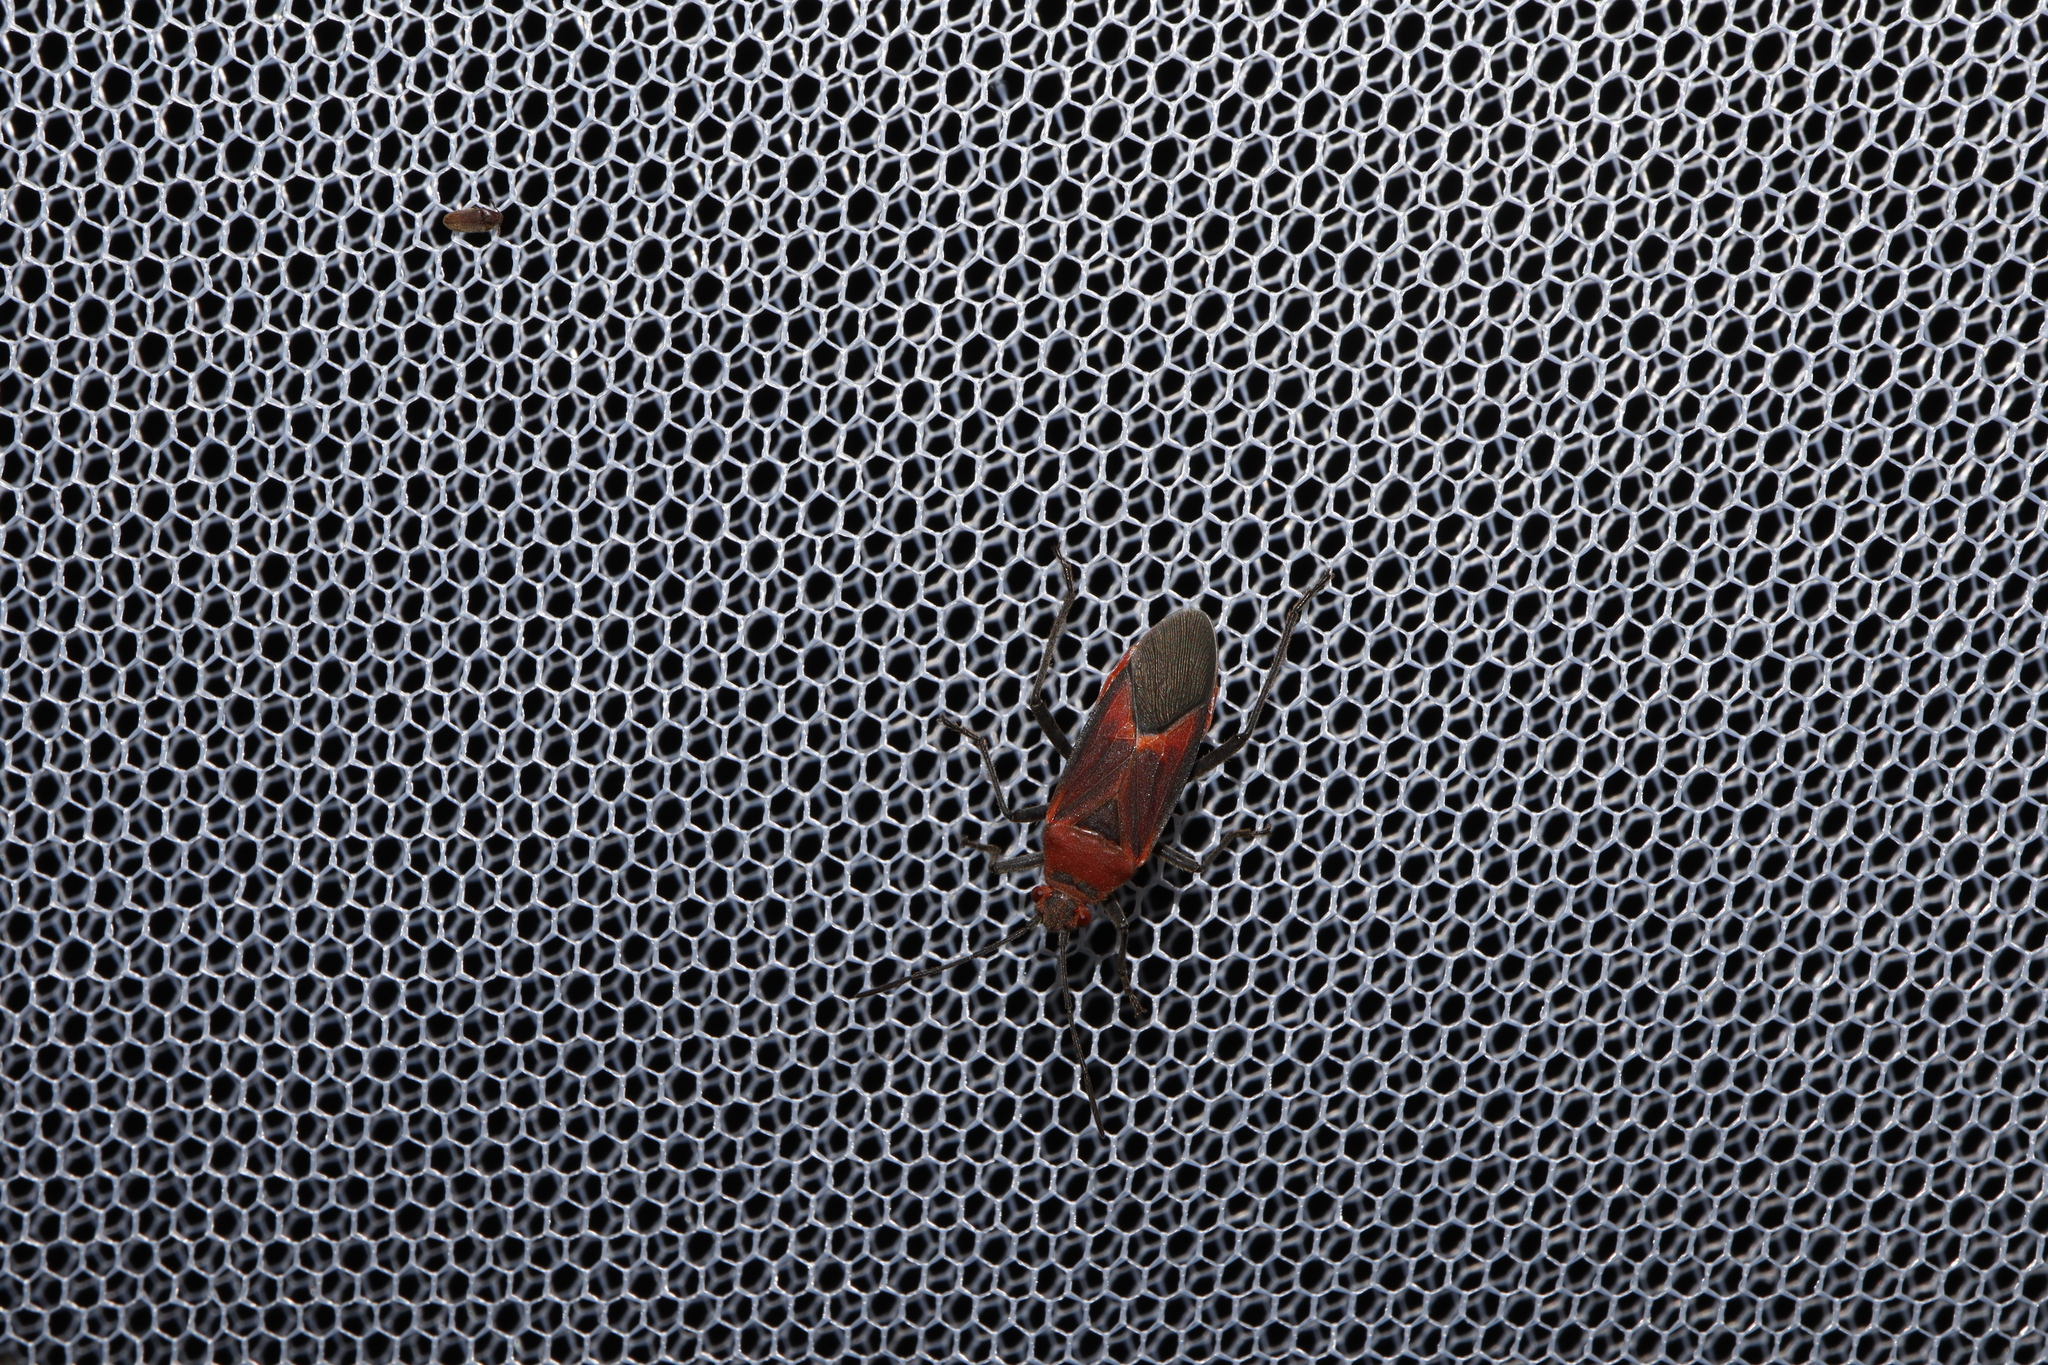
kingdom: Animalia
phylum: Arthropoda
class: Insecta
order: Hemiptera
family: Rhopalidae
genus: Leptocoris
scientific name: Leptocoris mitellatus
